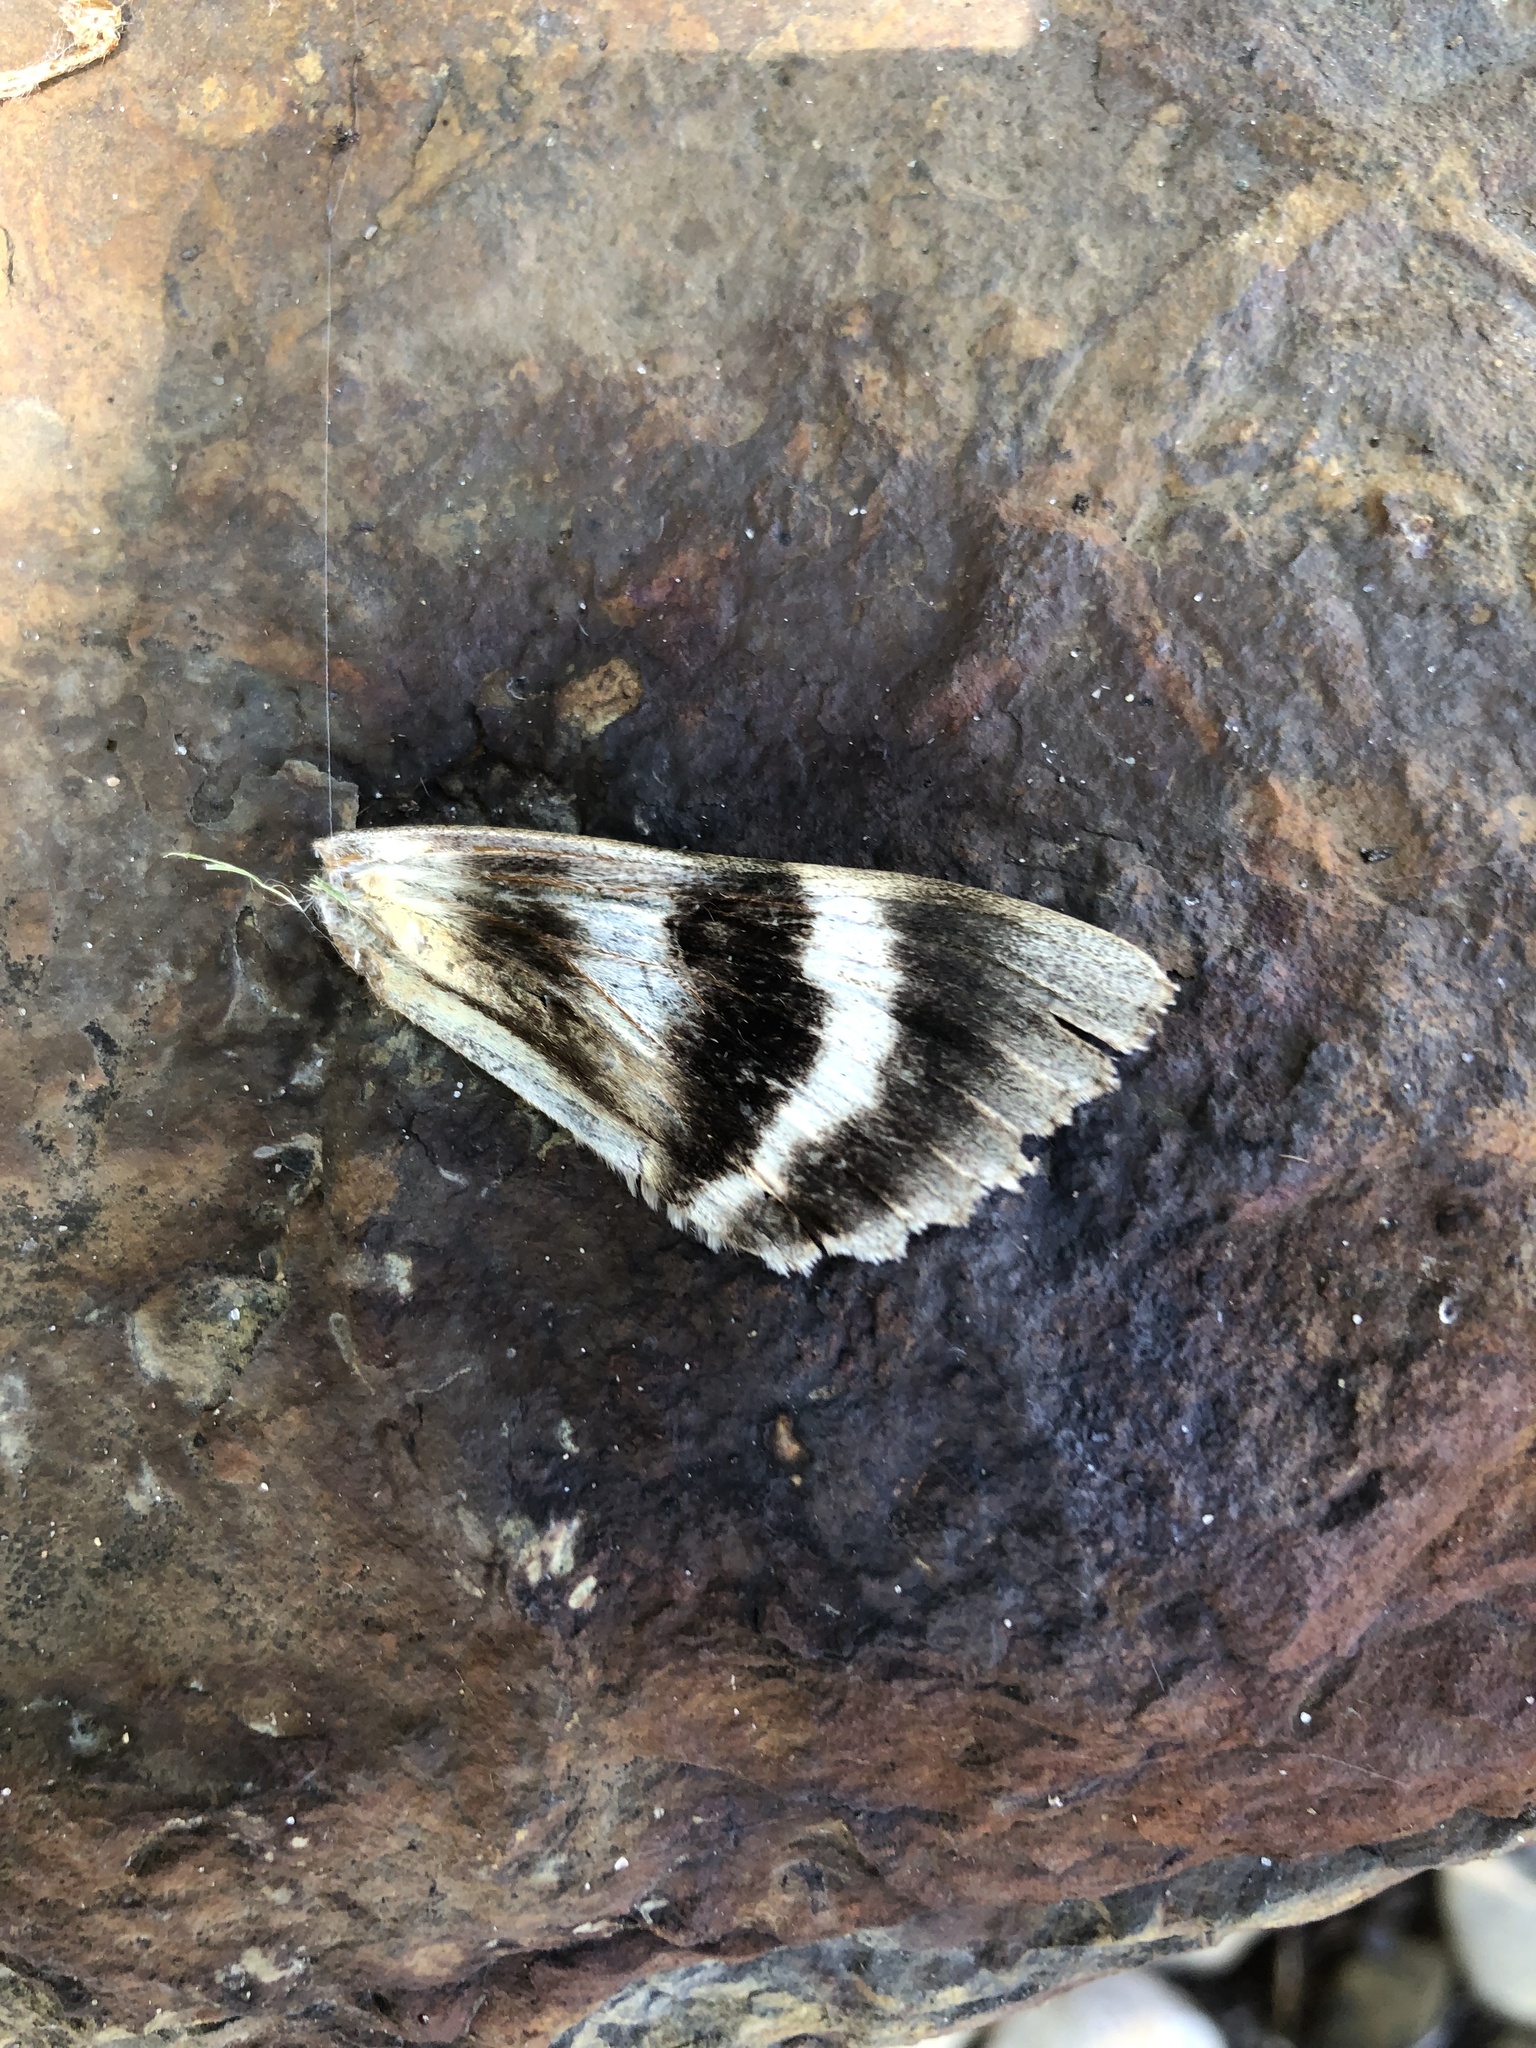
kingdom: Animalia
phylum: Arthropoda
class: Insecta
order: Lepidoptera
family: Erebidae
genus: Catocala
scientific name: Catocala parta
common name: Mother underwing
